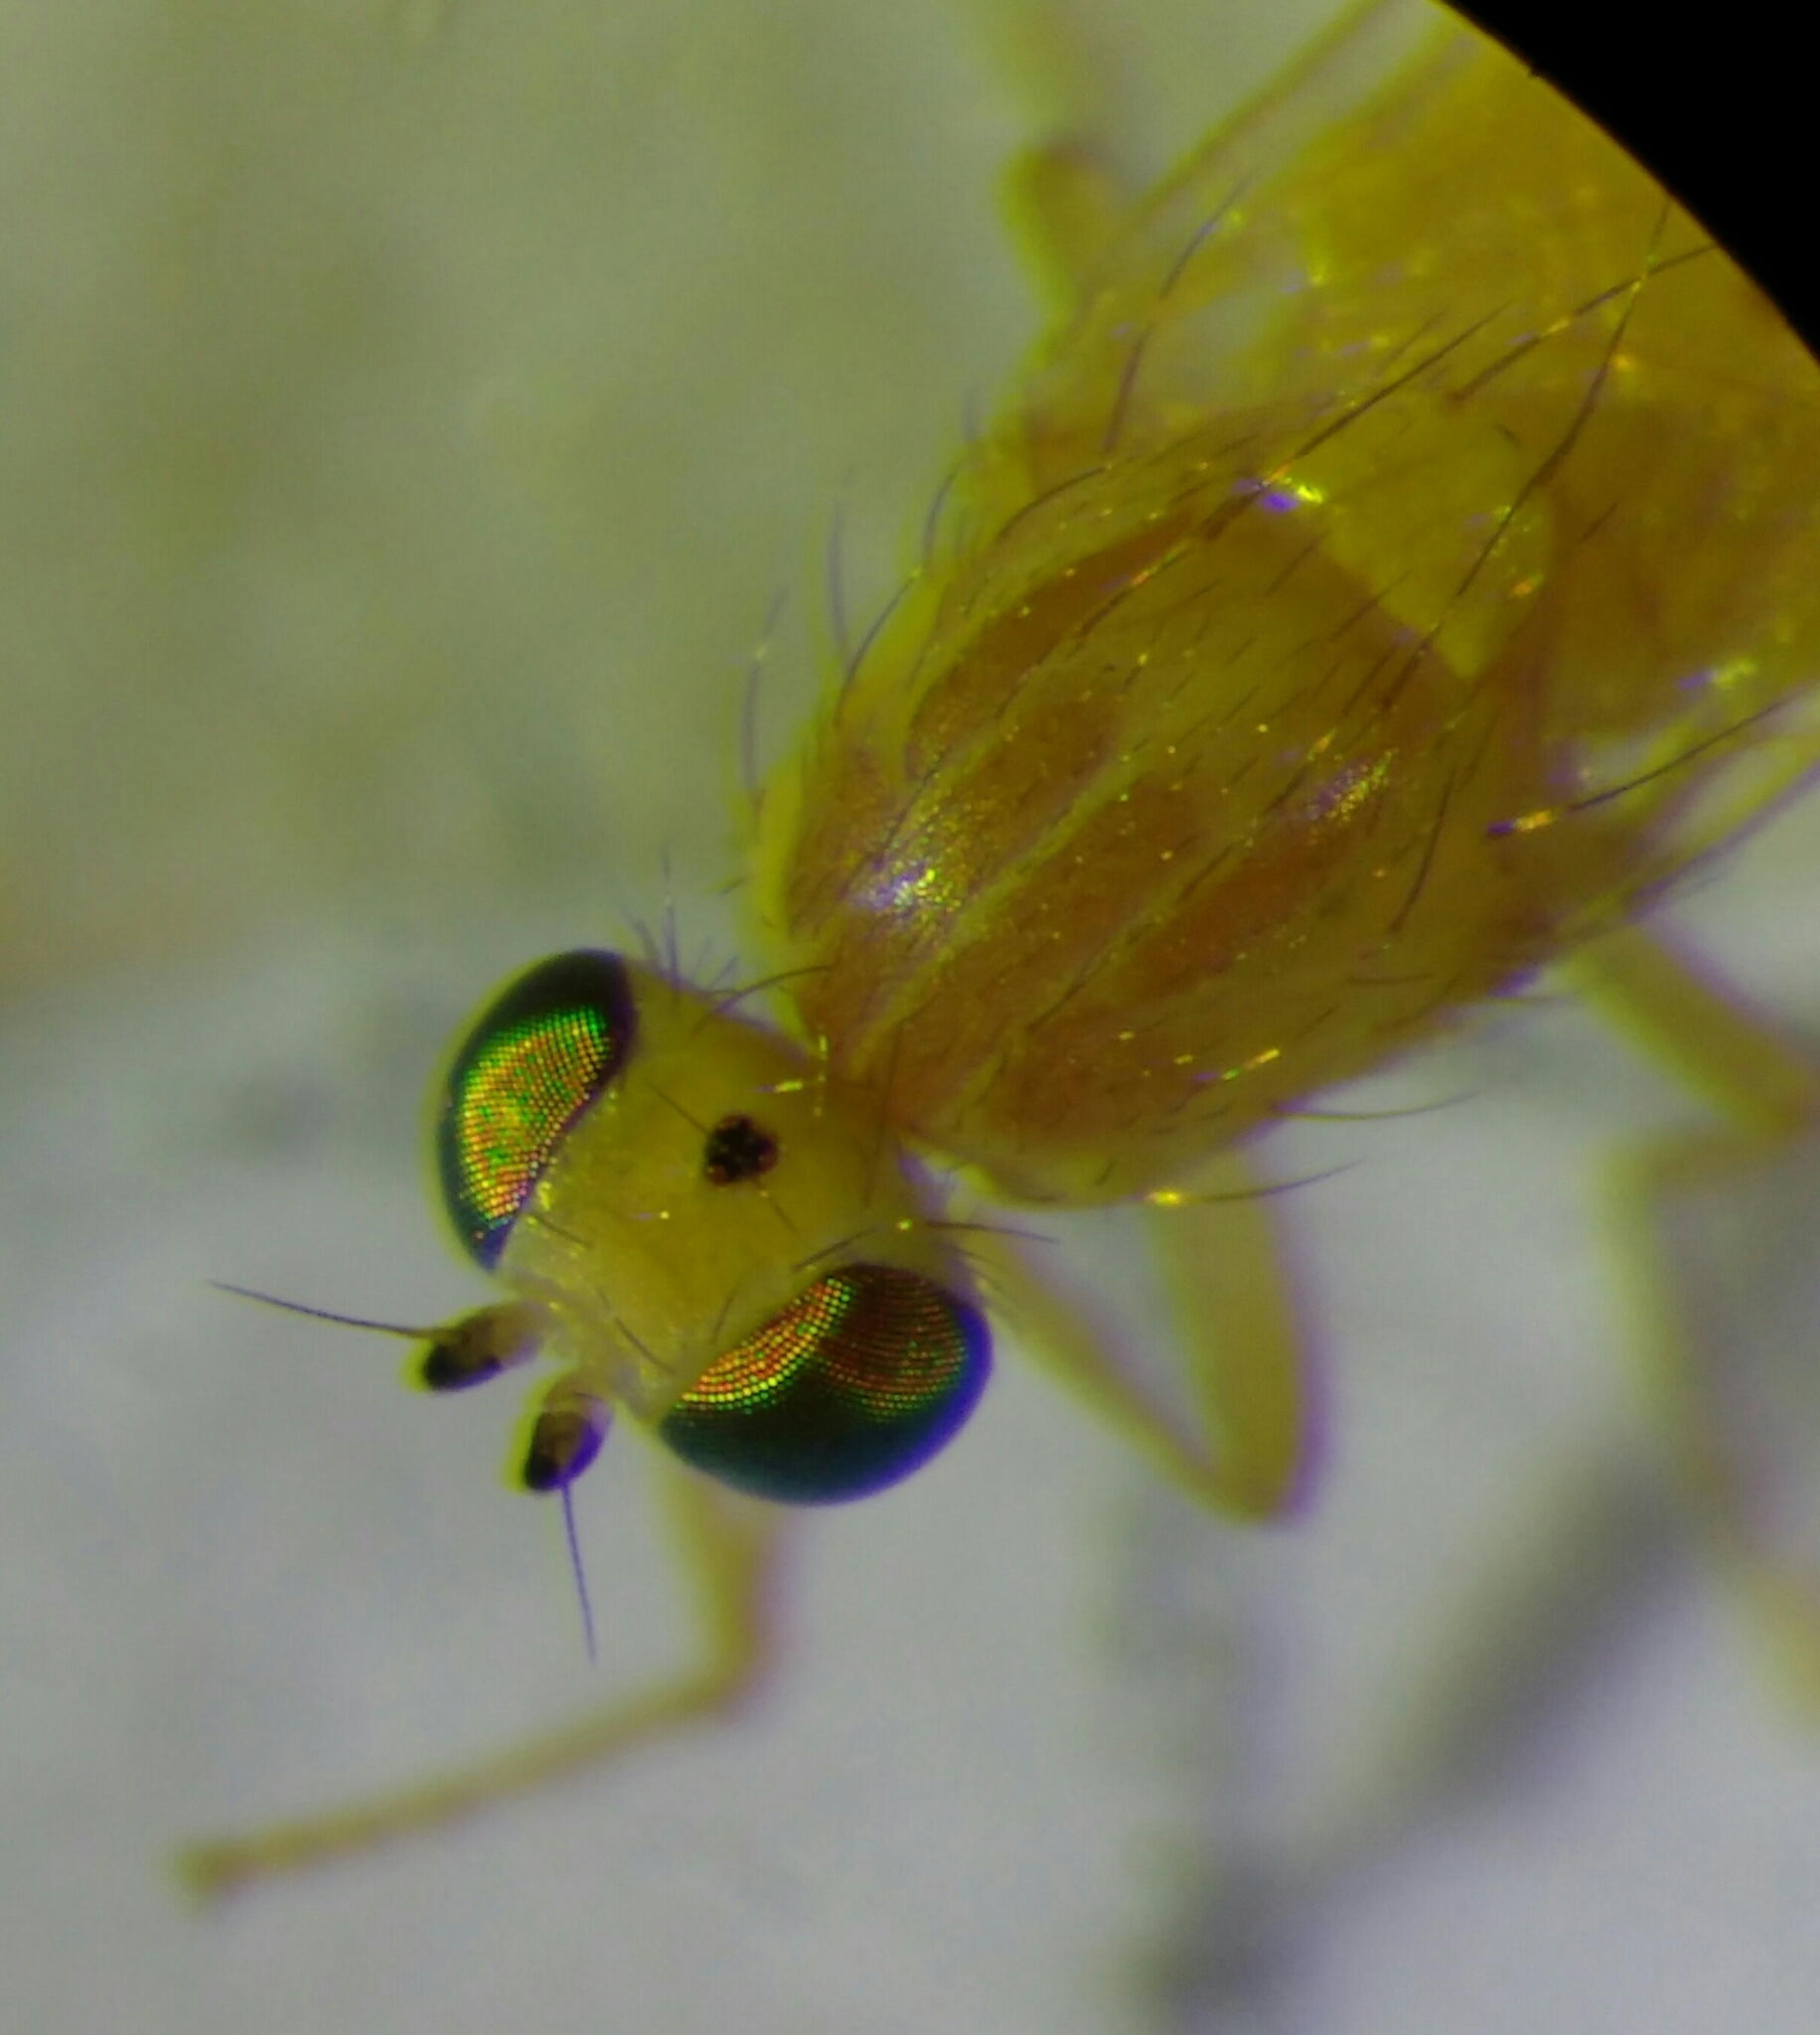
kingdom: Animalia
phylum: Arthropoda
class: Insecta
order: Diptera
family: Chyromyidae
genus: Chyromya
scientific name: Chyromya oppidana
